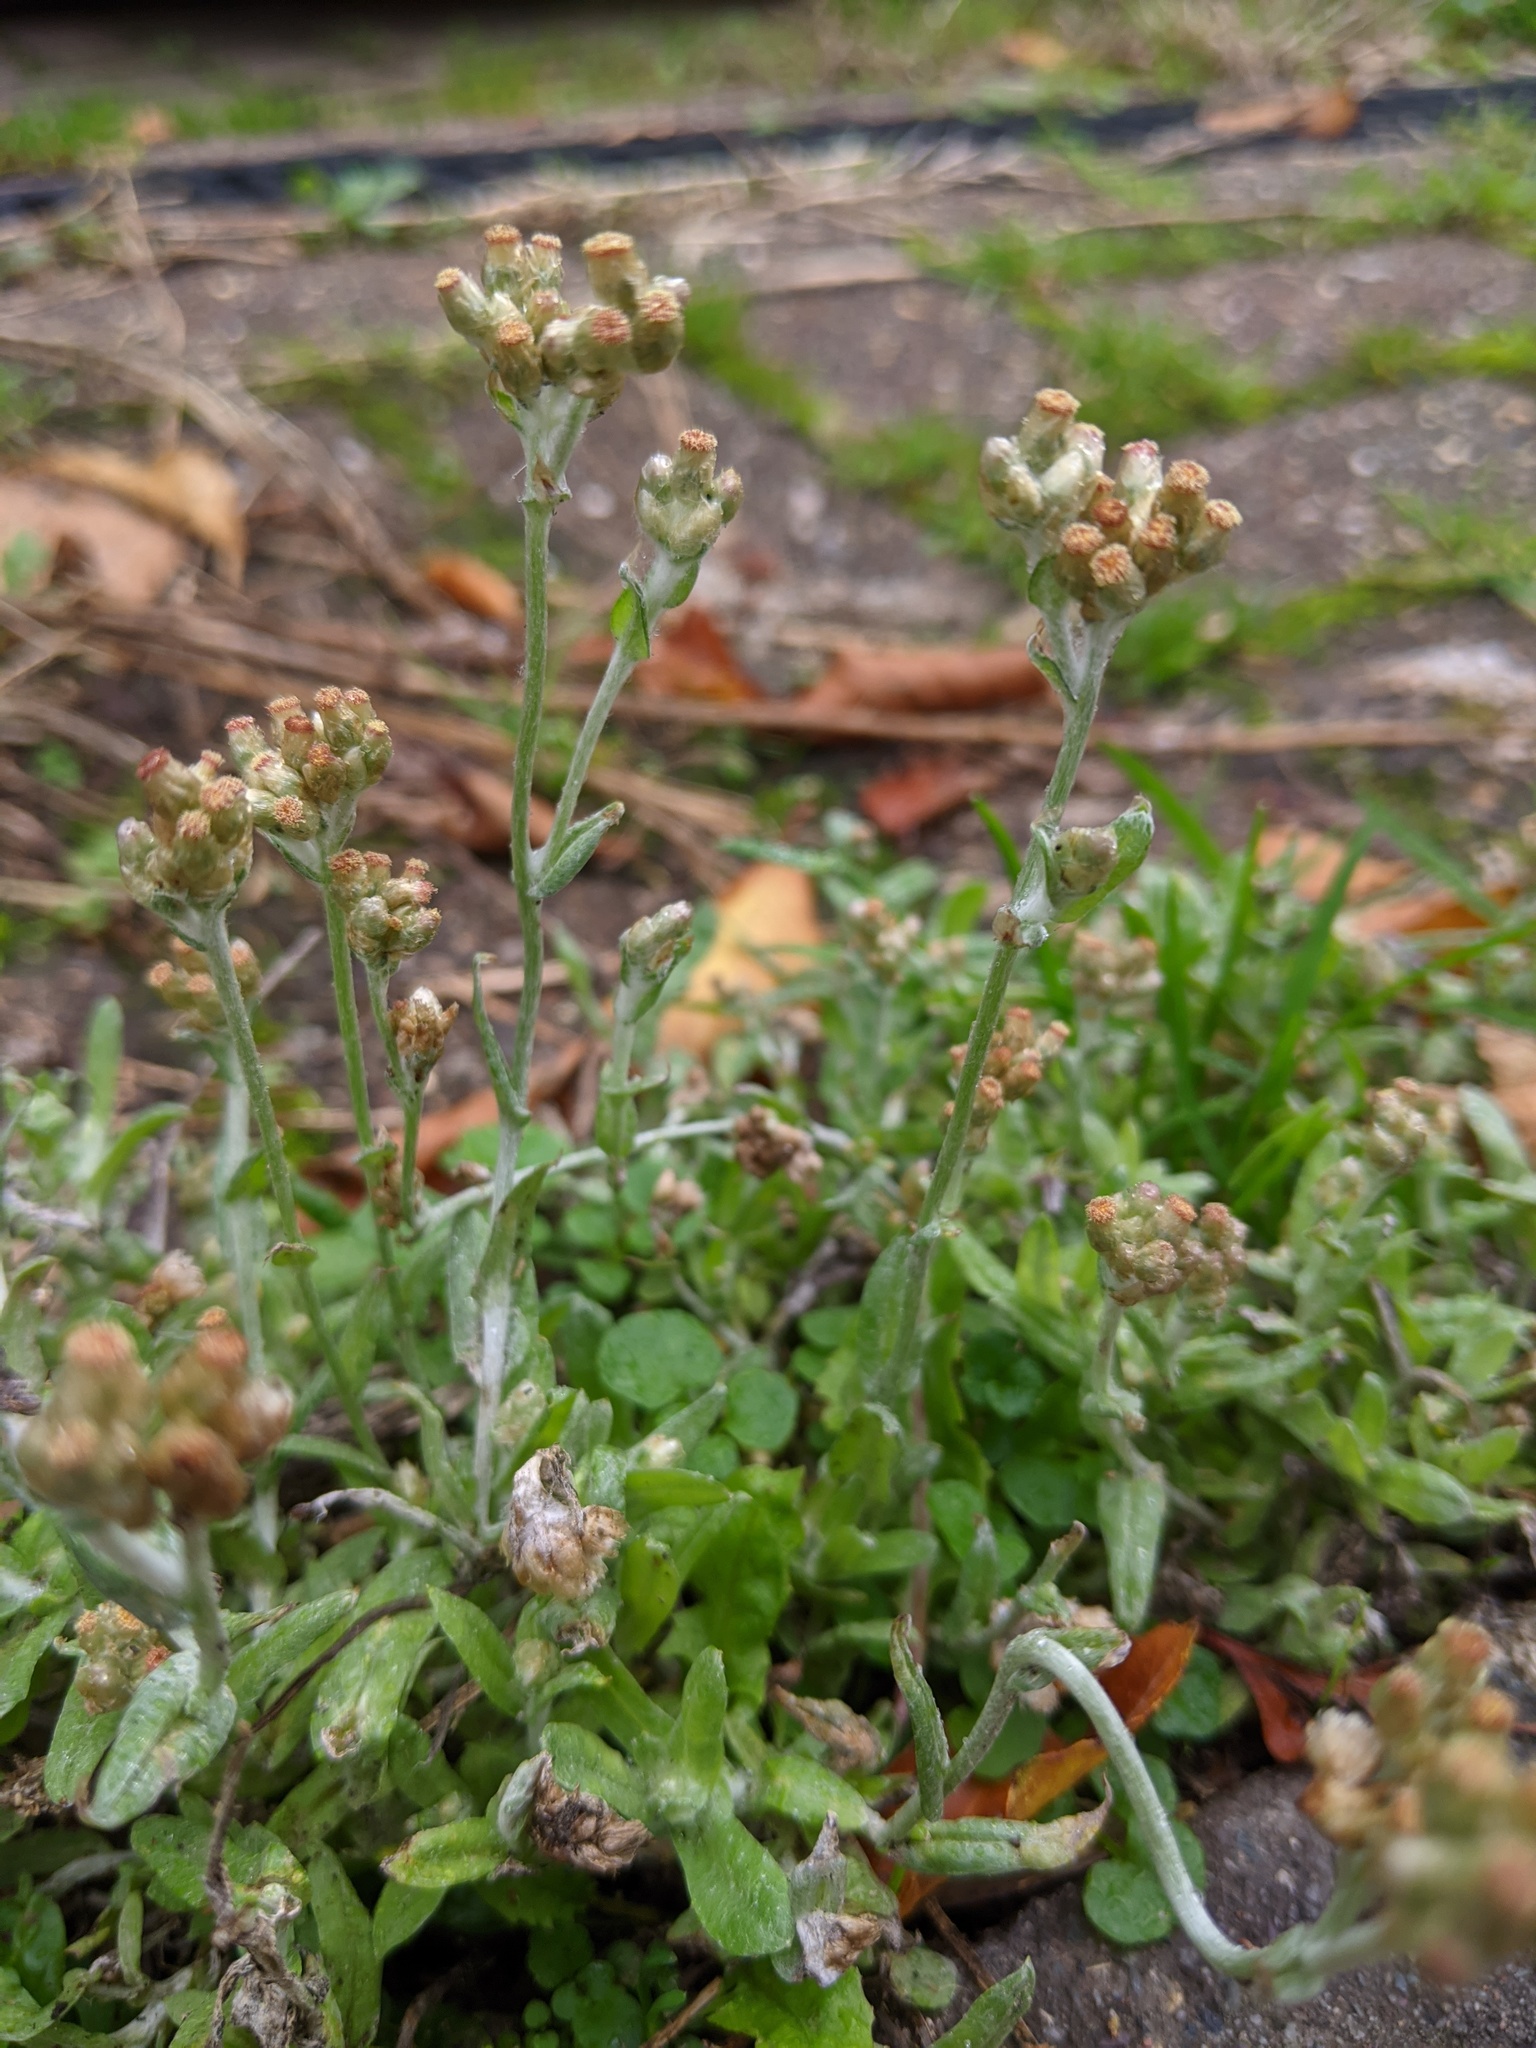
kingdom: Plantae
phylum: Tracheophyta
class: Magnoliopsida
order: Asterales
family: Asteraceae
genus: Helichrysum
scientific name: Helichrysum luteoalbum
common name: Daisy
